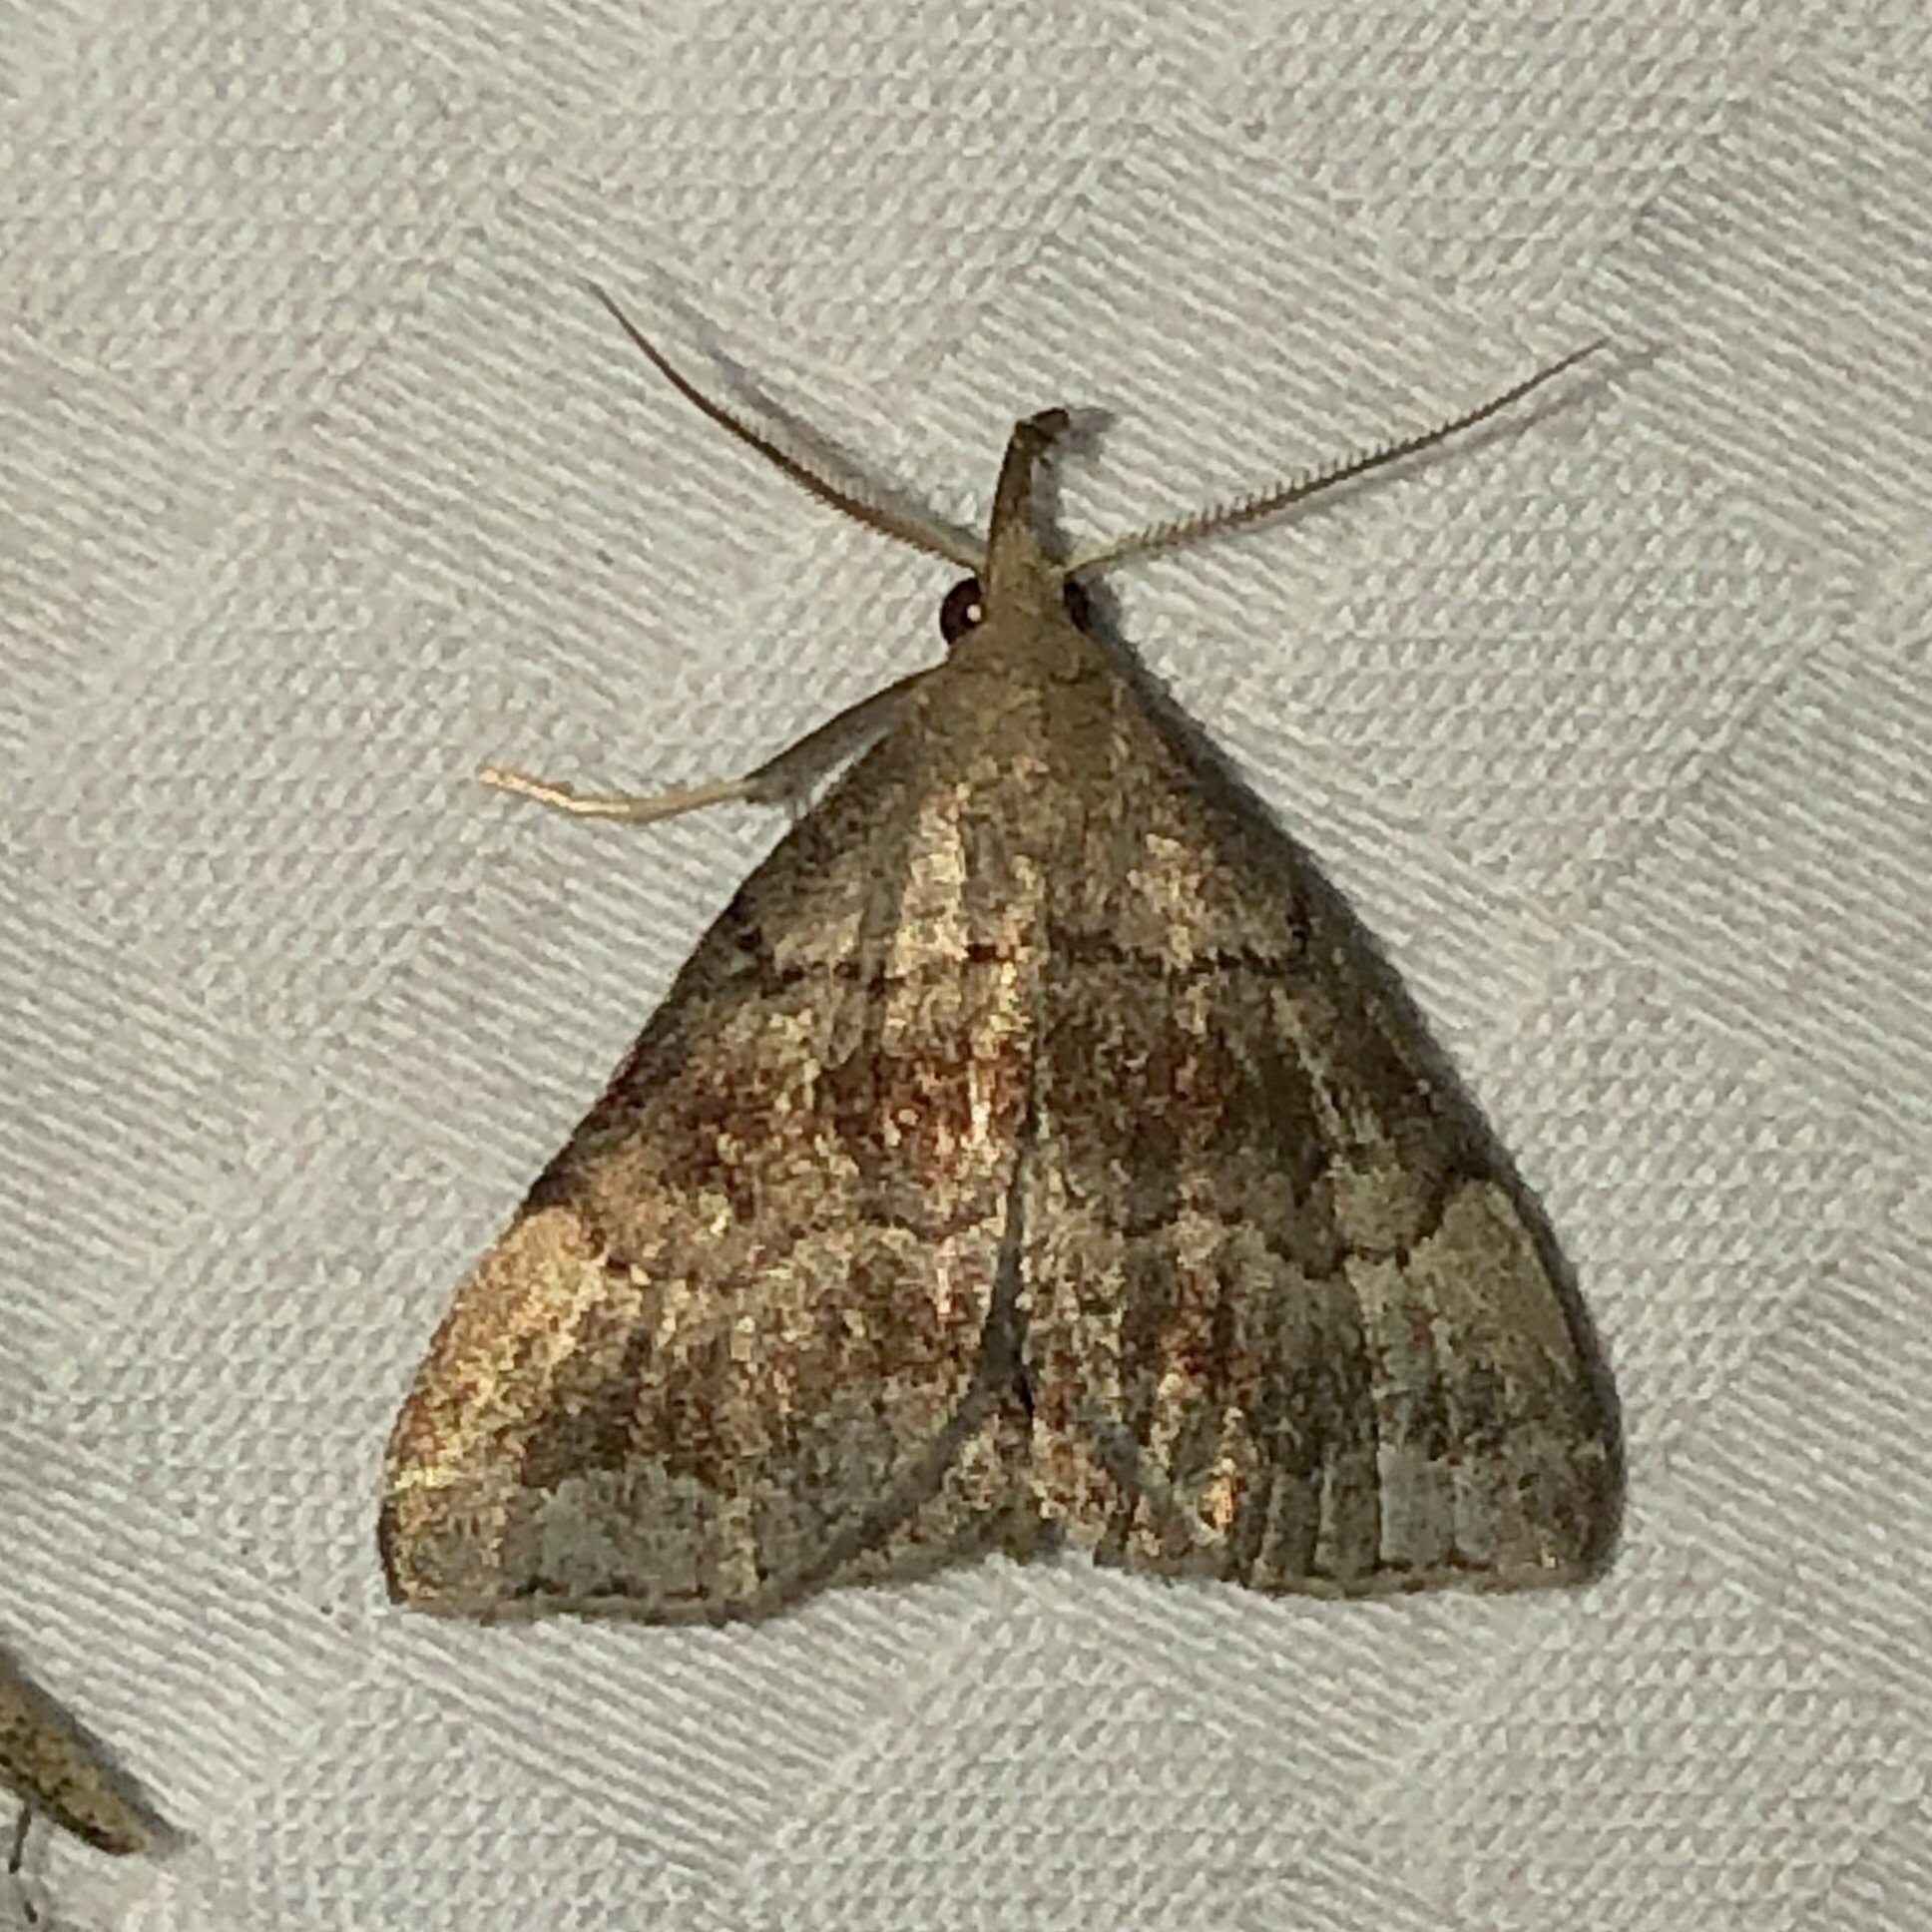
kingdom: Animalia
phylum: Arthropoda
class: Insecta
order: Lepidoptera
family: Erebidae
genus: Phalaenostola
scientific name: Phalaenostola larentioides
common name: Black-banded owlet
